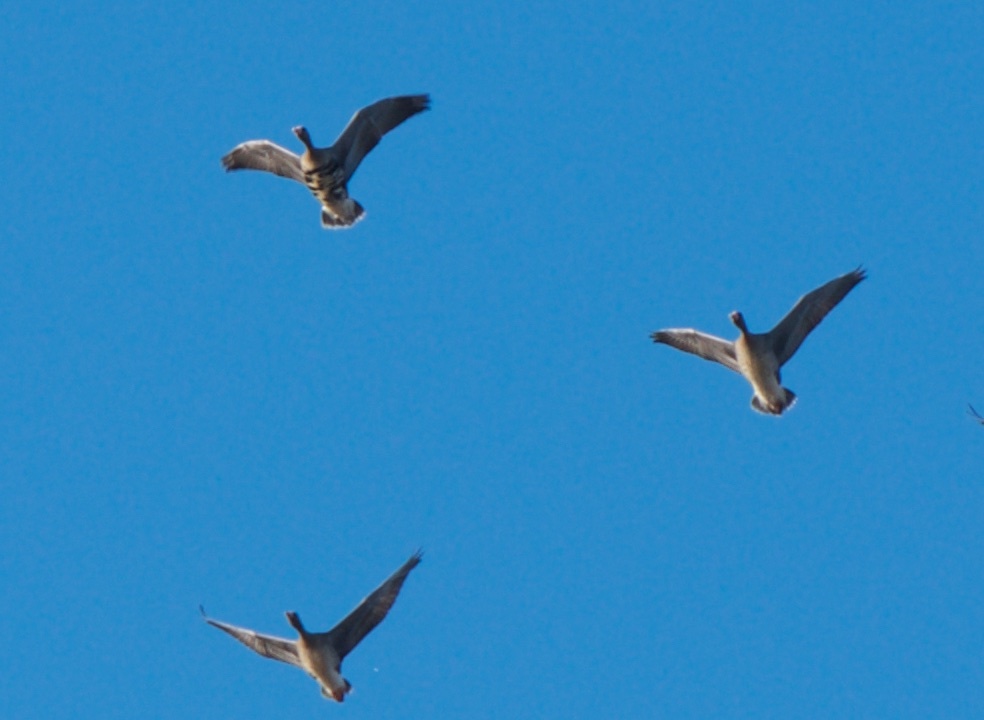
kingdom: Animalia
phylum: Chordata
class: Aves
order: Anseriformes
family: Anatidae
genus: Anser
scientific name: Anser albifrons
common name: Greater white-fronted goose
